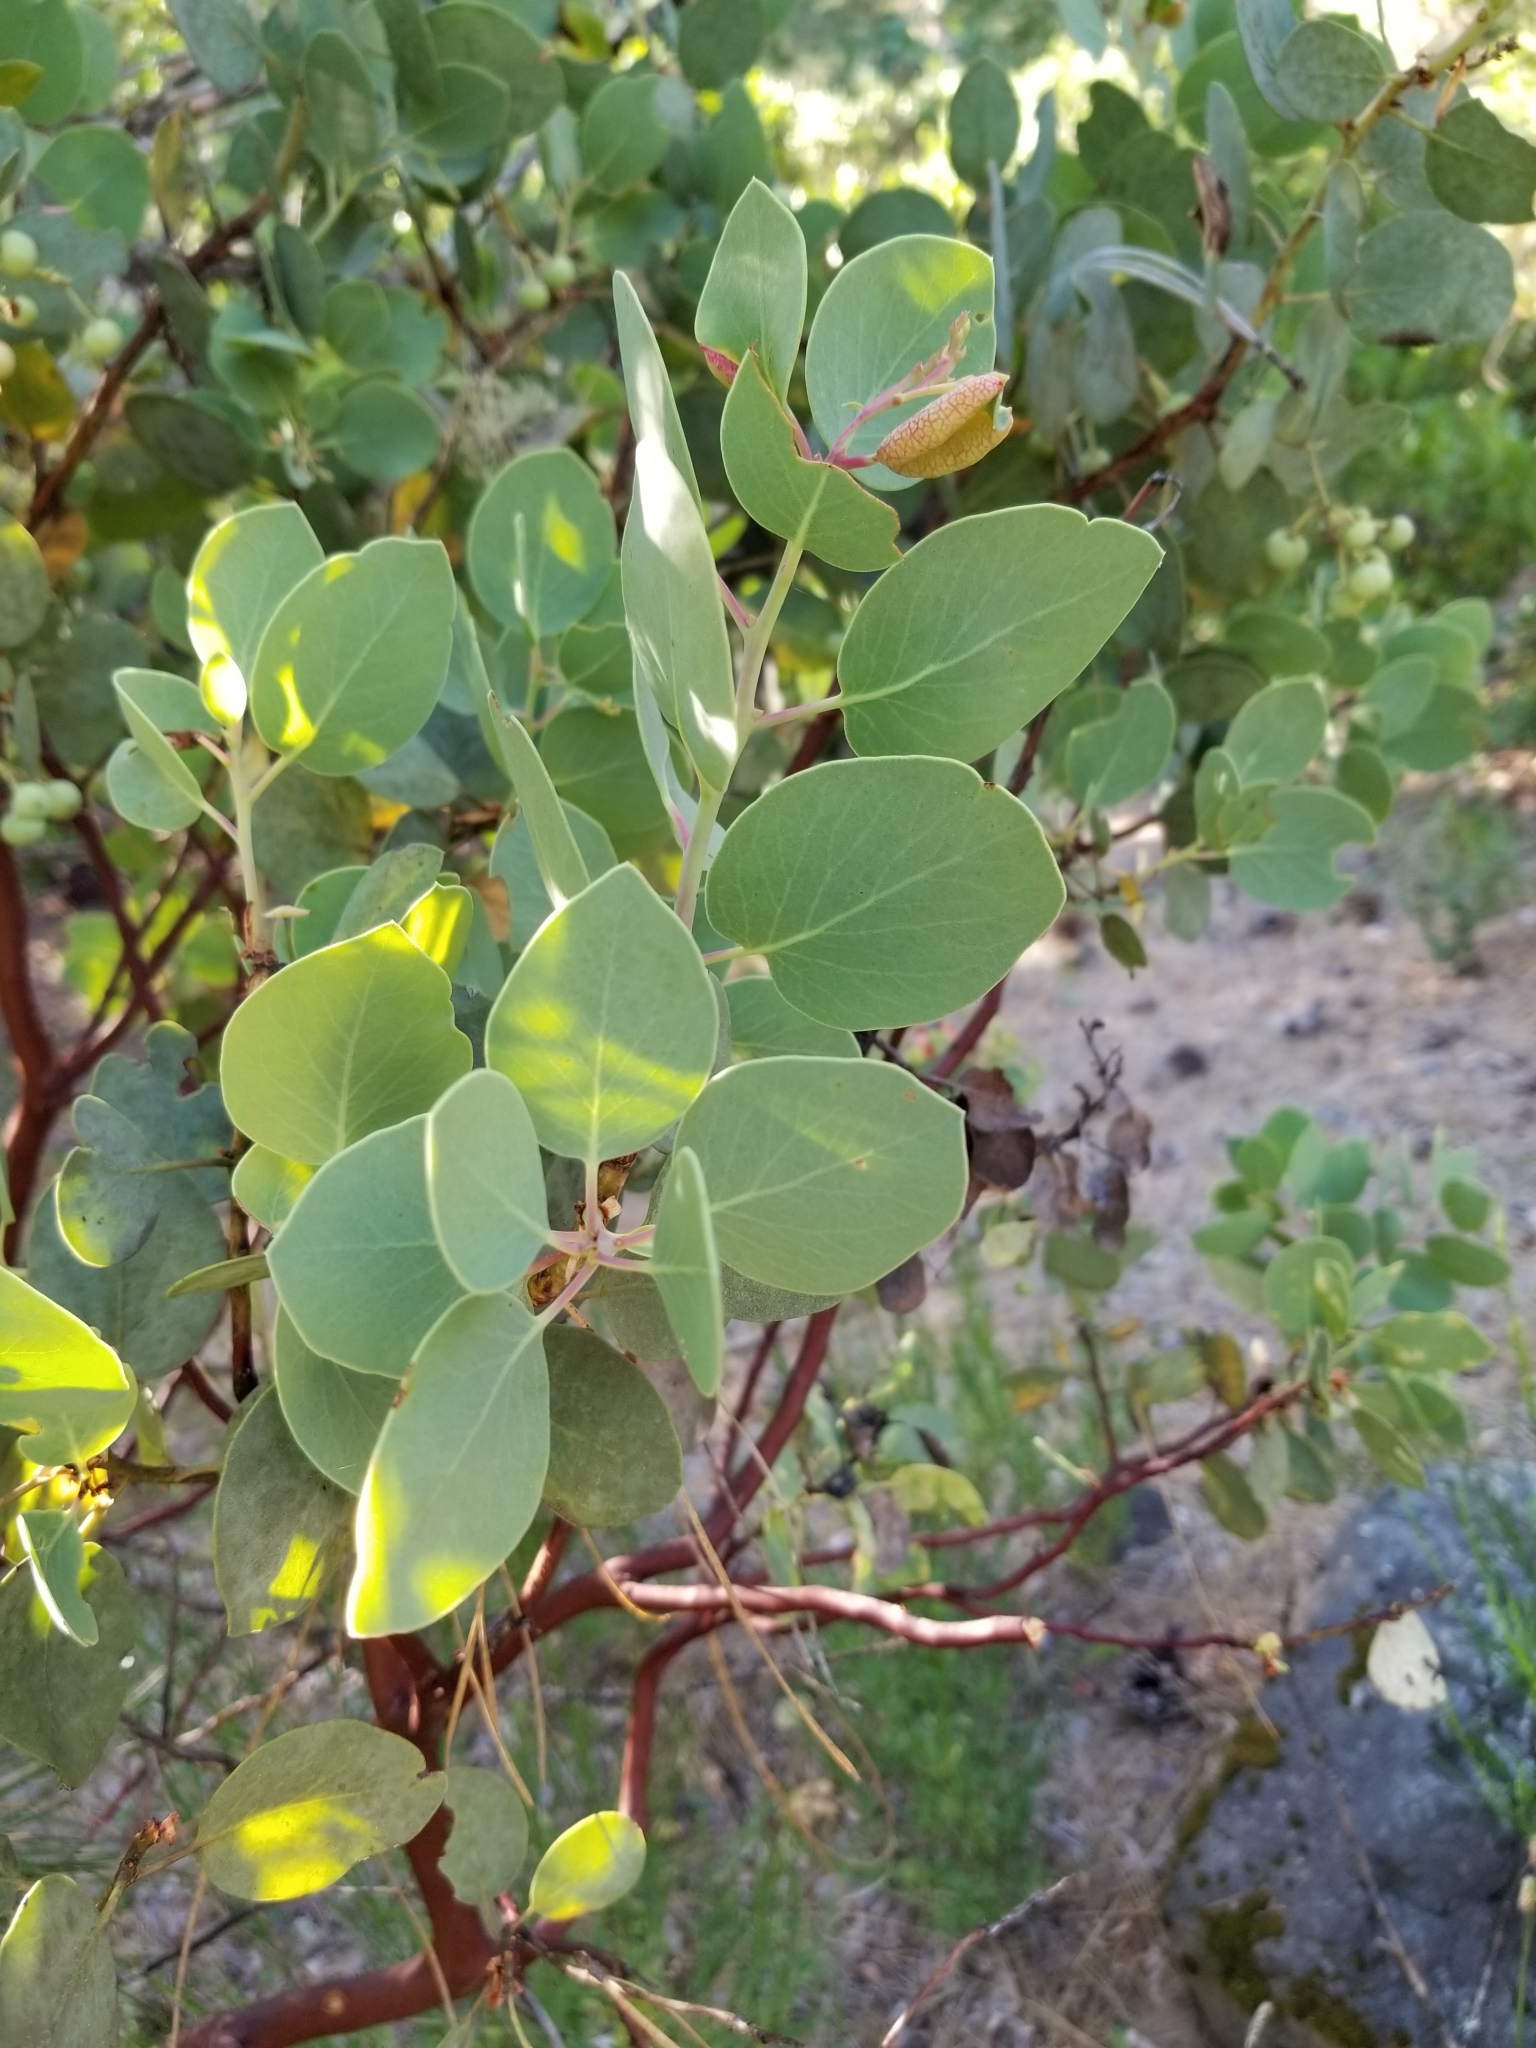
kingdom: Plantae
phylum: Tracheophyta
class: Magnoliopsida
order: Ericales
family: Ericaceae
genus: Arctostaphylos
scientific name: Arctostaphylos viscida
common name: White-leaf manzanita
